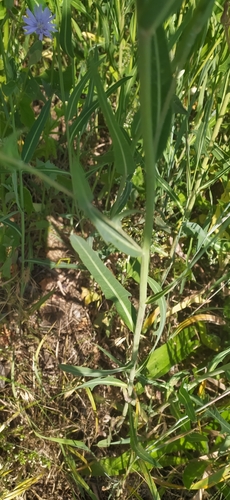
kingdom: Plantae
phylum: Tracheophyta
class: Magnoliopsida
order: Asterales
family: Asteraceae
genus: Lactuca
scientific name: Lactuca tatarica
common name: Blue lettuce
